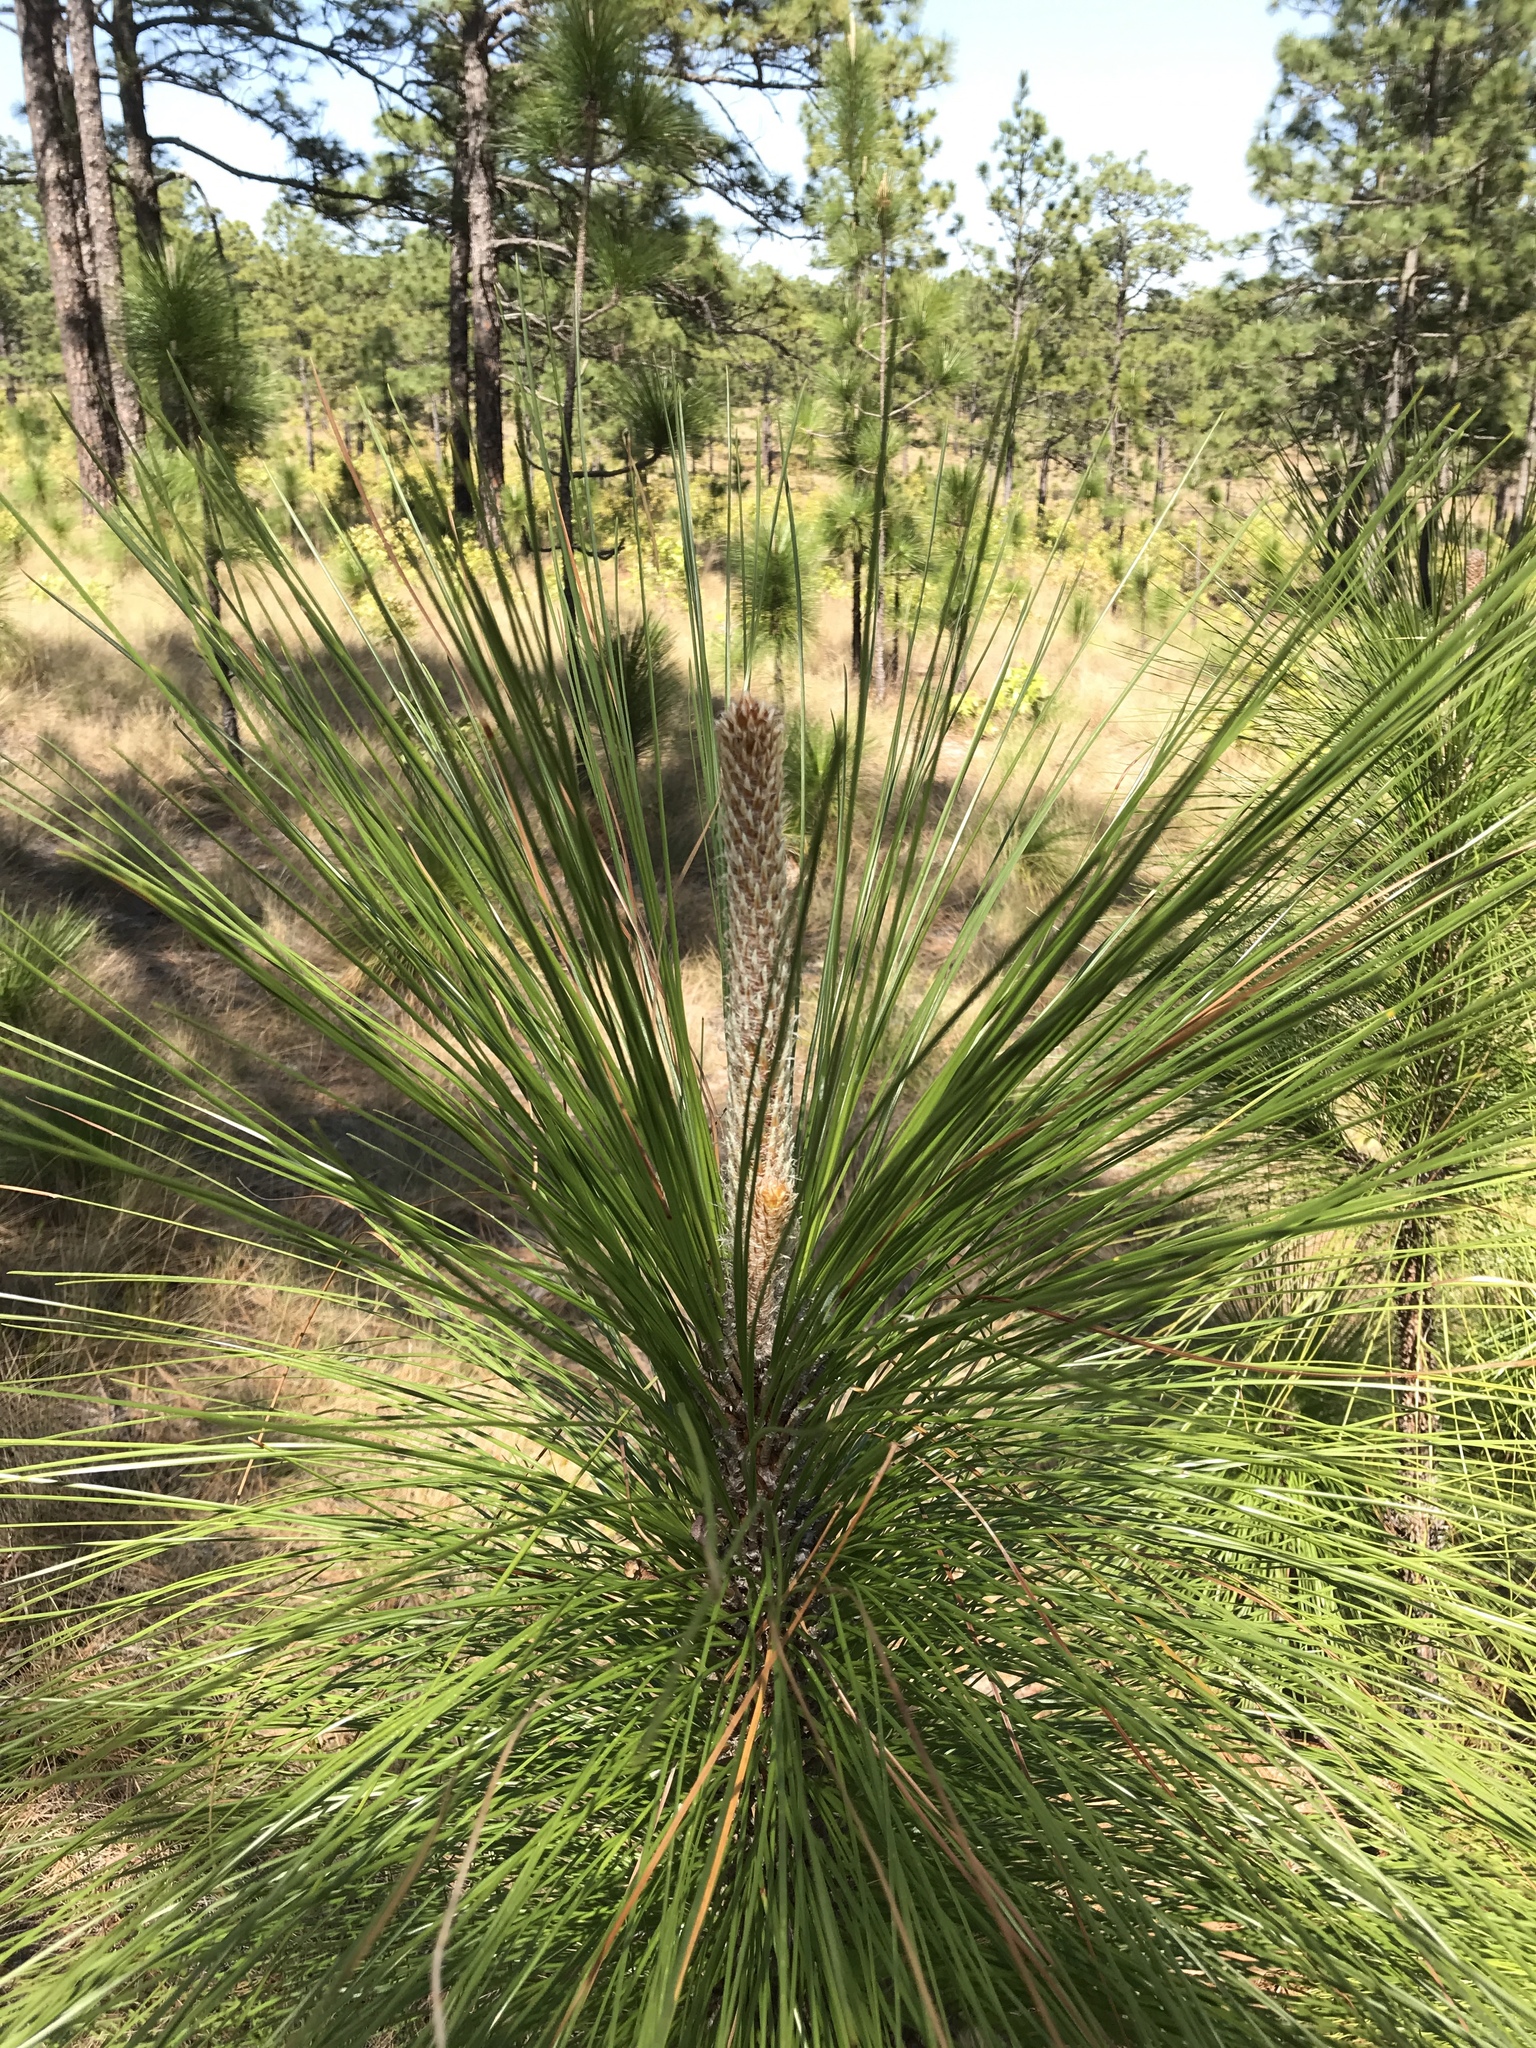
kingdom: Plantae
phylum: Tracheophyta
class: Pinopsida
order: Pinales
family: Pinaceae
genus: Pinus
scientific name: Pinus palustris
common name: Longleaf pine
